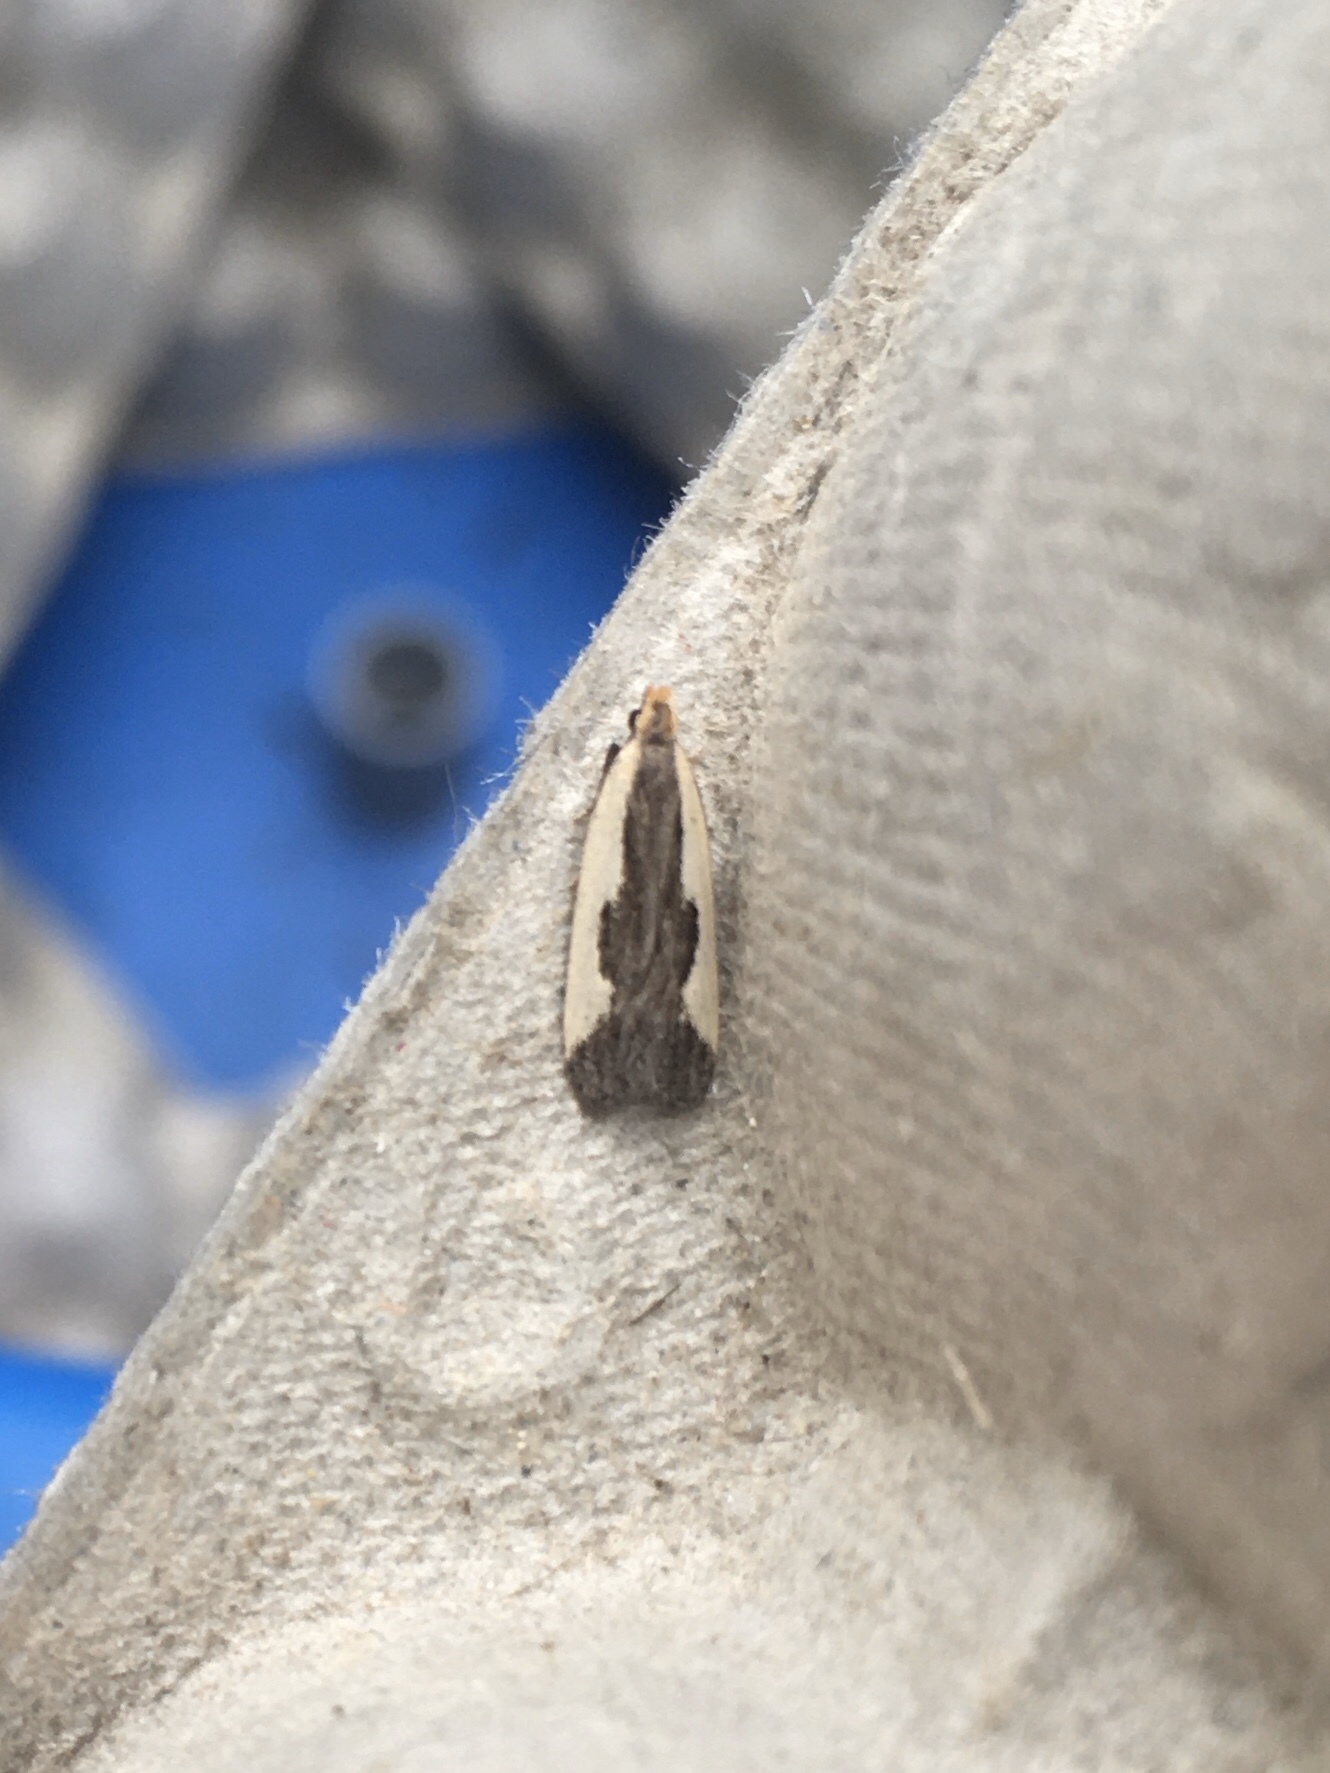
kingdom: Animalia
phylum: Arthropoda
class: Insecta
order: Lepidoptera
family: Gelechiidae
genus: Dichomeris
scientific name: Dichomeris inserrata
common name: Indented dichomeris moth
